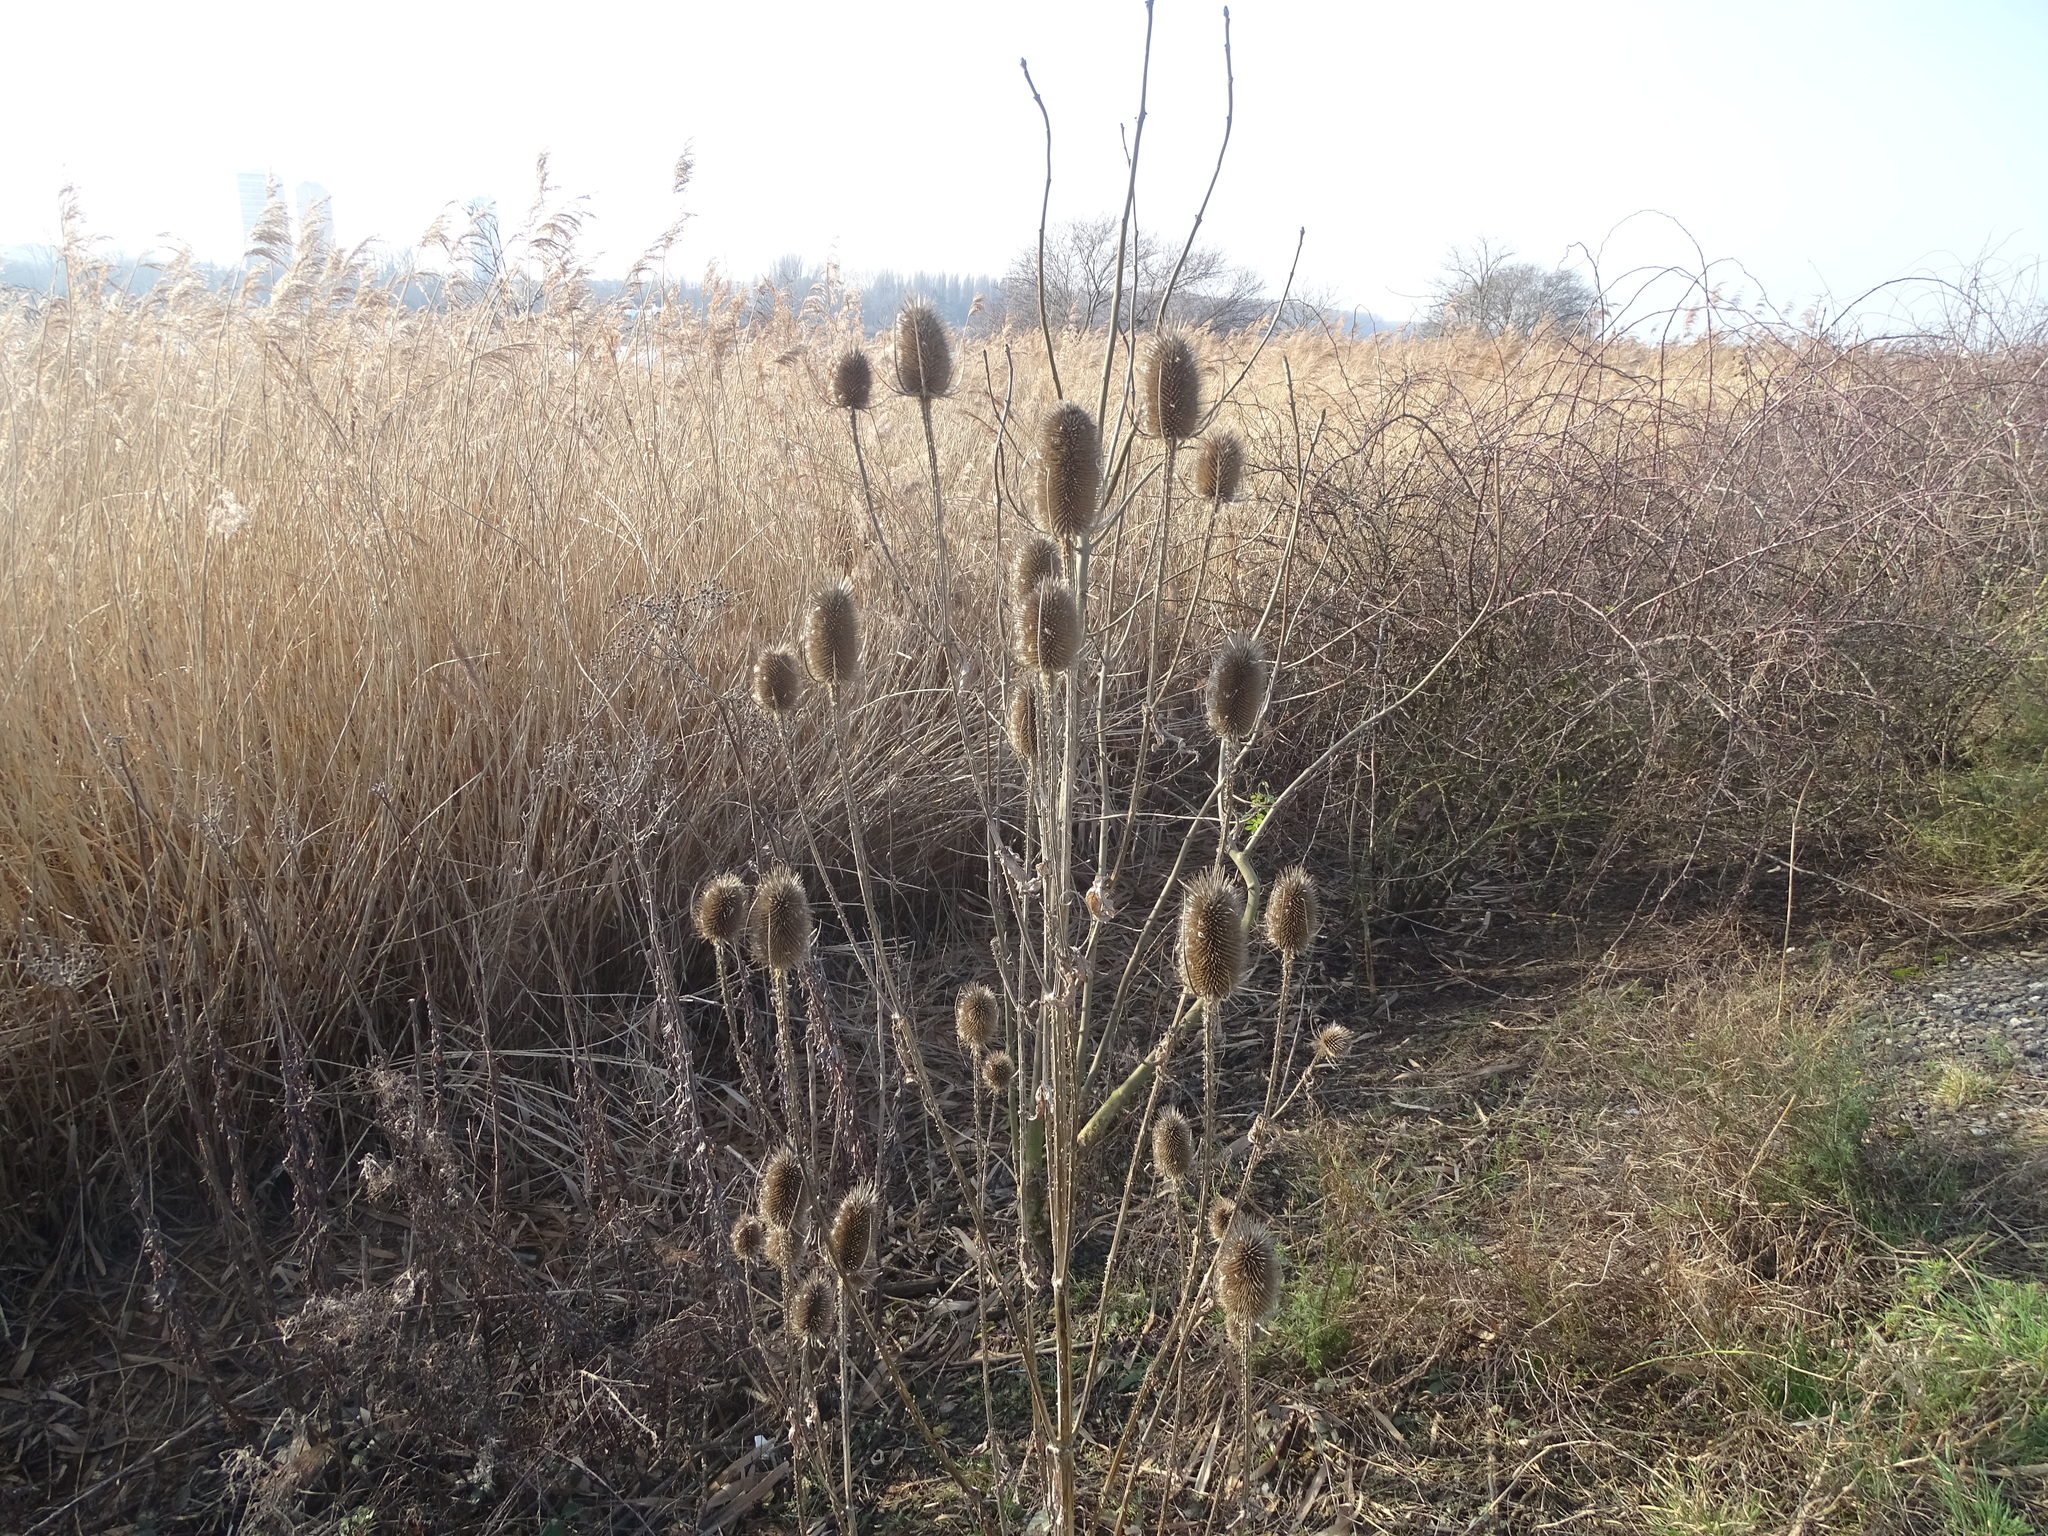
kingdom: Plantae
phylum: Tracheophyta
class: Magnoliopsida
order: Dipsacales
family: Caprifoliaceae
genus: Dipsacus
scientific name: Dipsacus fullonum
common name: Teasel
